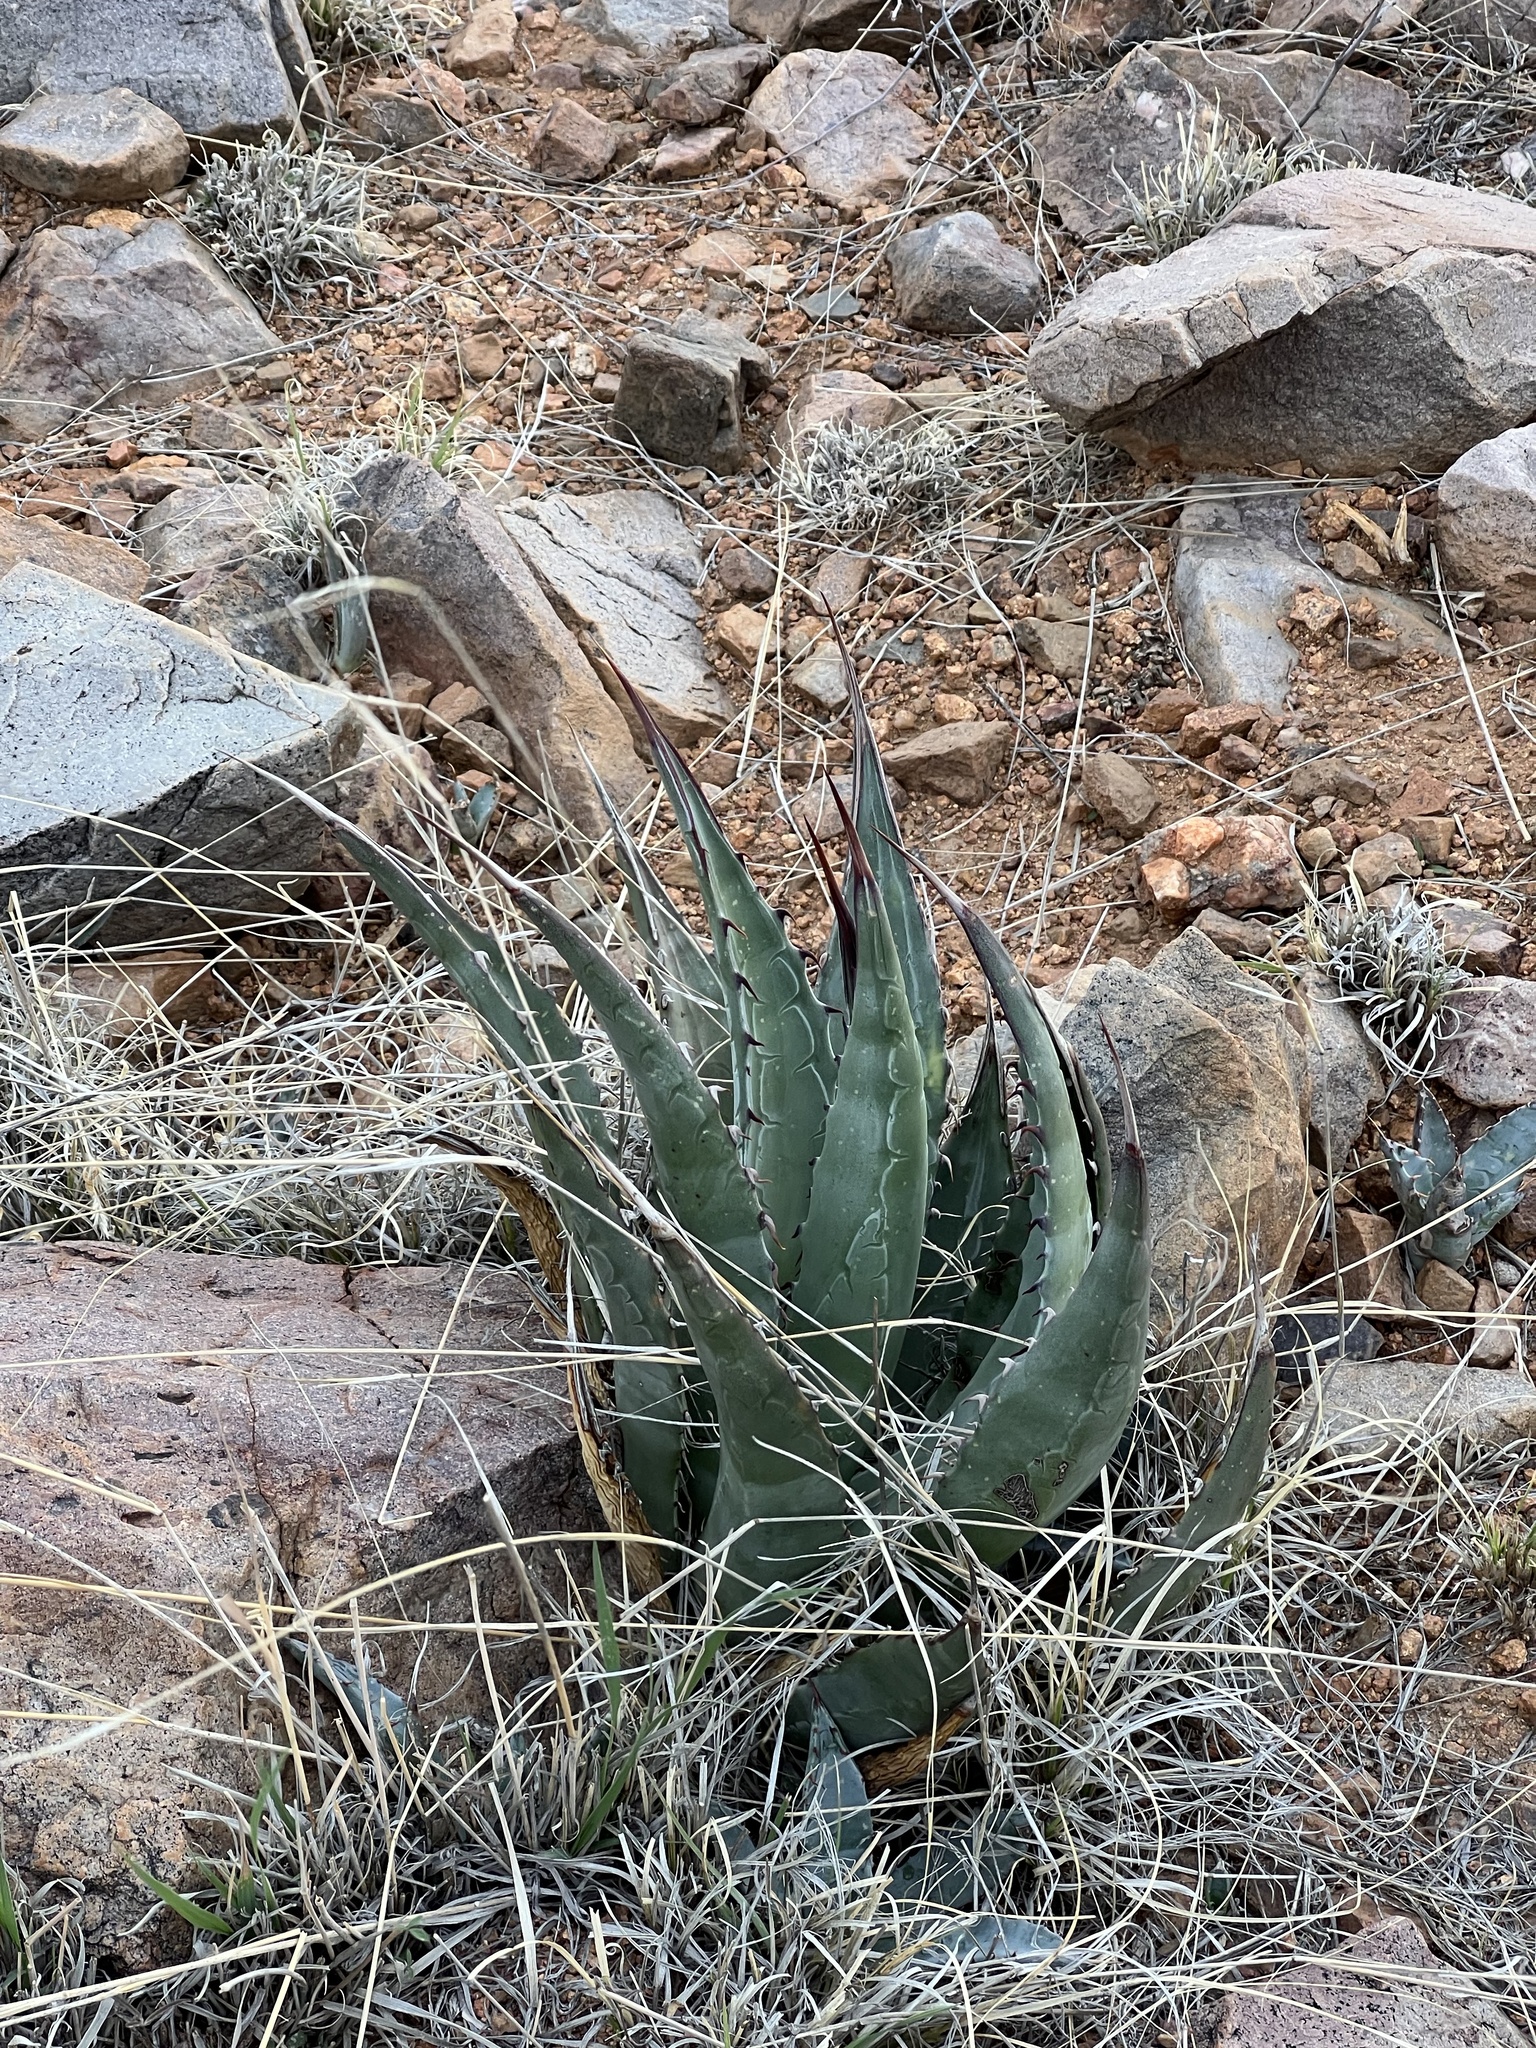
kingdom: Plantae
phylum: Tracheophyta
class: Liliopsida
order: Asparagales
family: Asparagaceae
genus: Agave
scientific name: Agave palmeri
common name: Palmer agave
